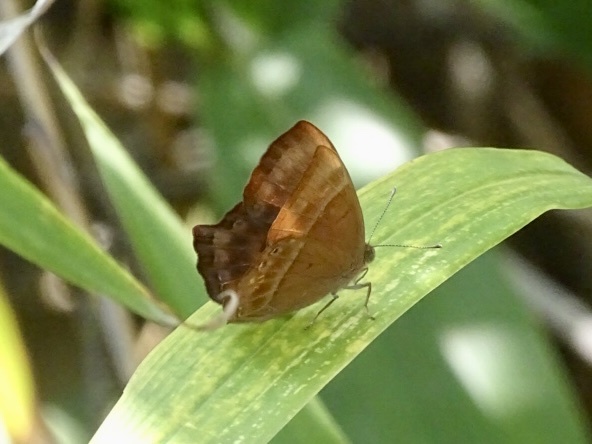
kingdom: Animalia
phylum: Arthropoda
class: Insecta
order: Lepidoptera
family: Lycaenidae
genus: Abisara
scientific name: Abisara echeria
